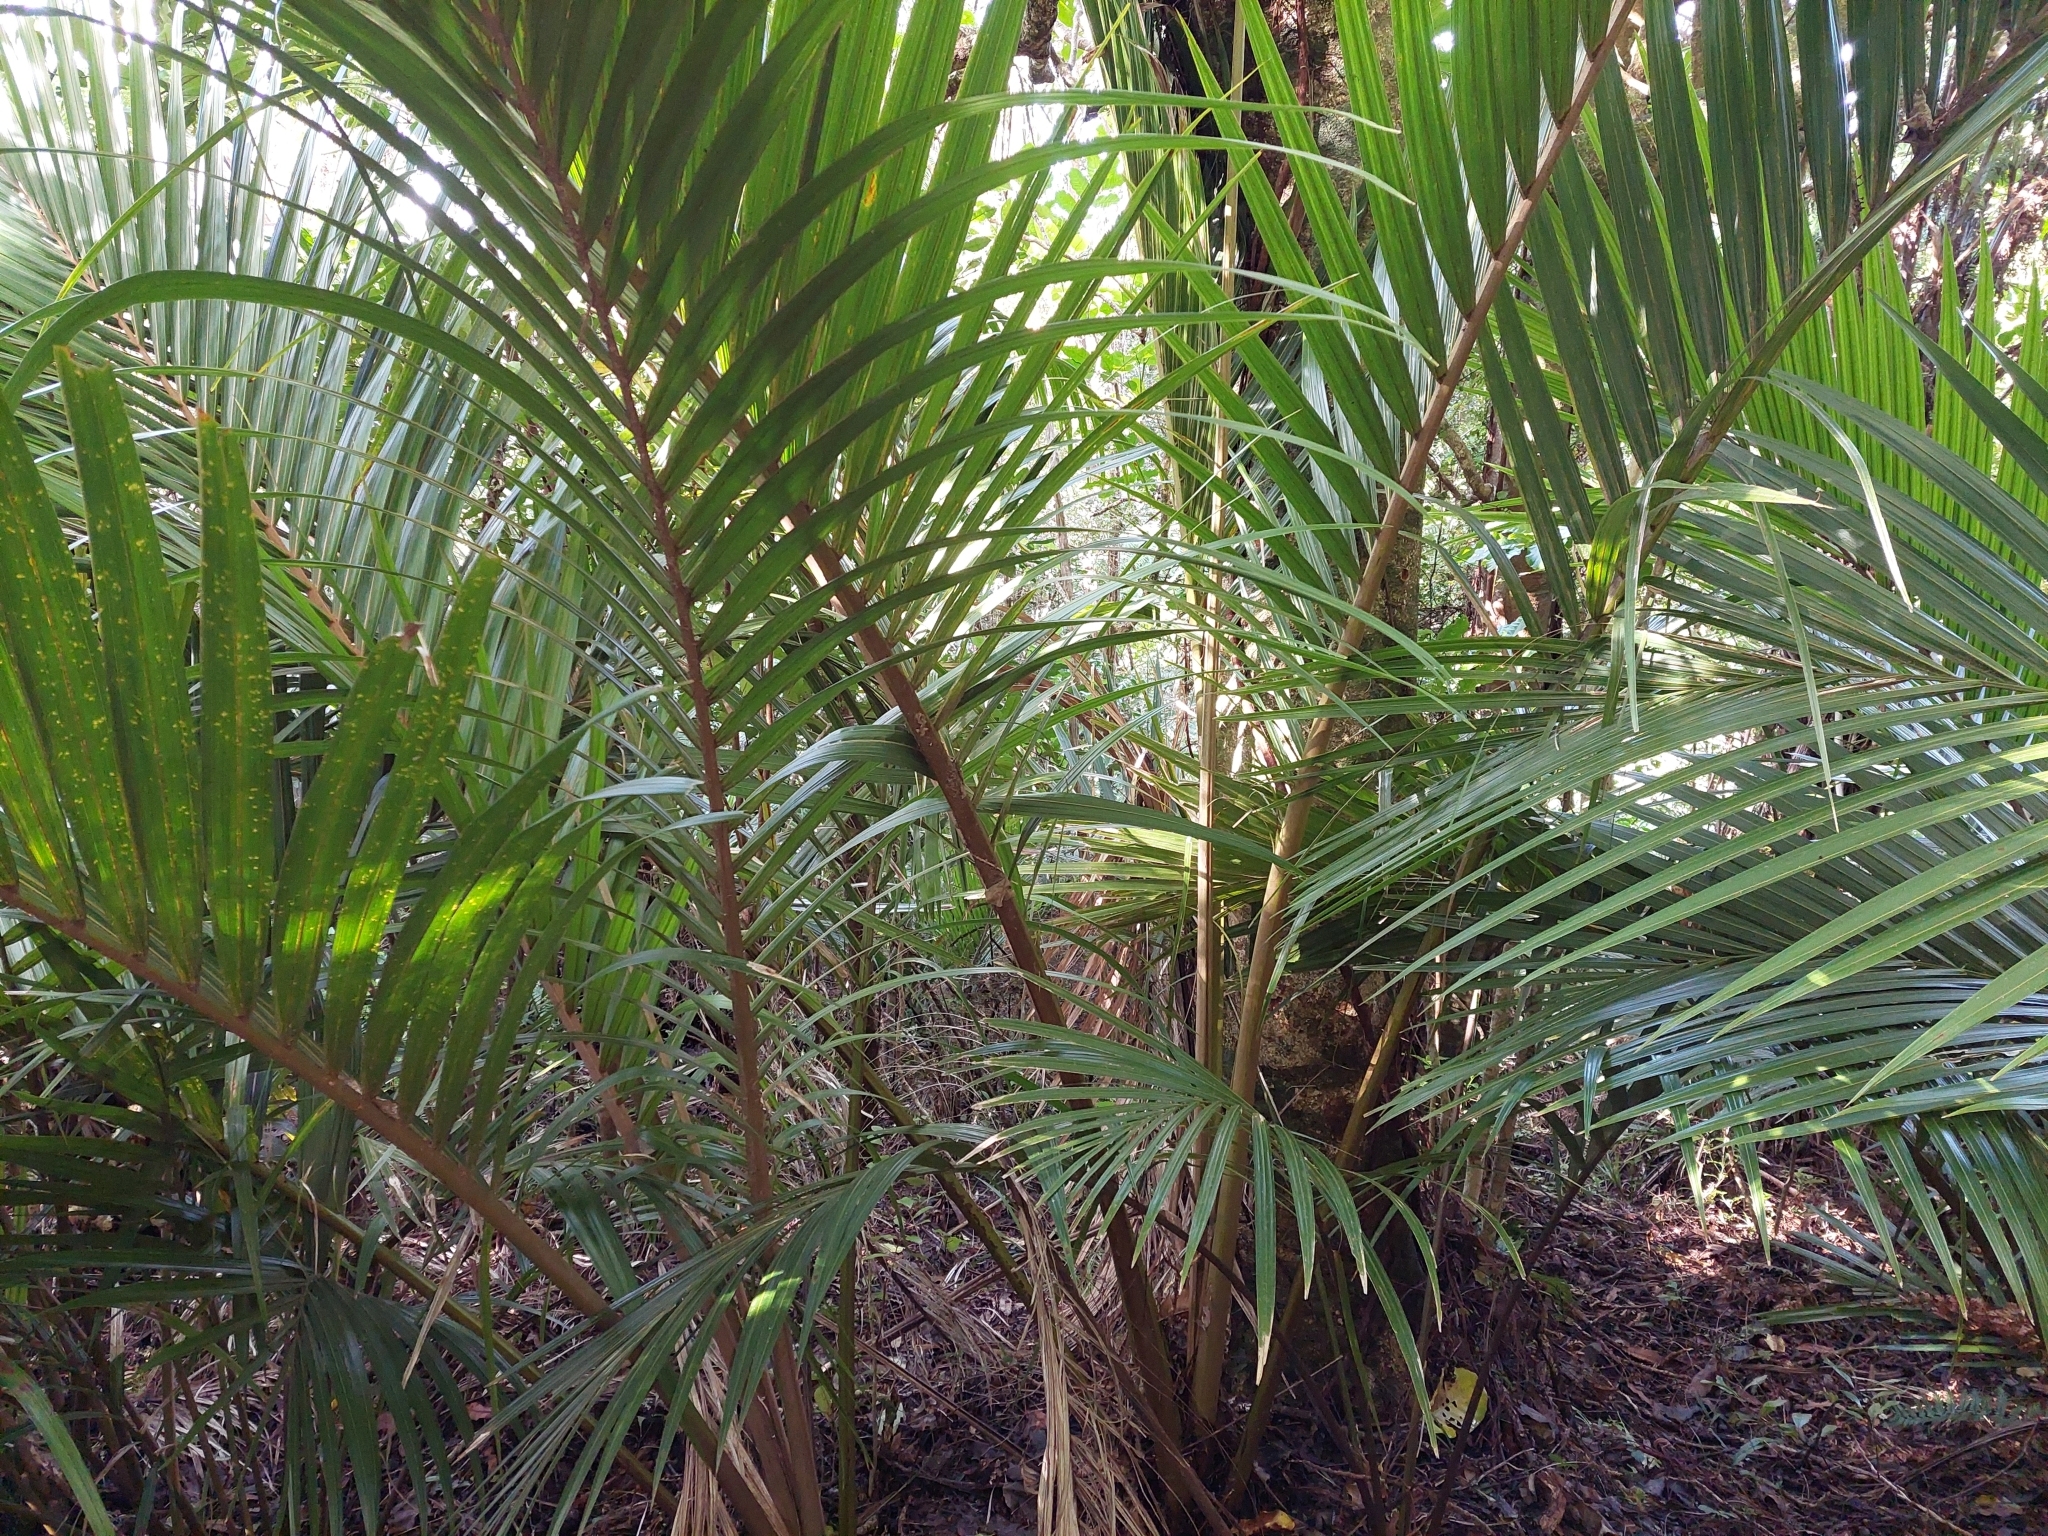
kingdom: Plantae
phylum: Tracheophyta
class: Liliopsida
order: Arecales
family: Arecaceae
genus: Rhopalostylis
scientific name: Rhopalostylis sapida
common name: Feather-duster palm
